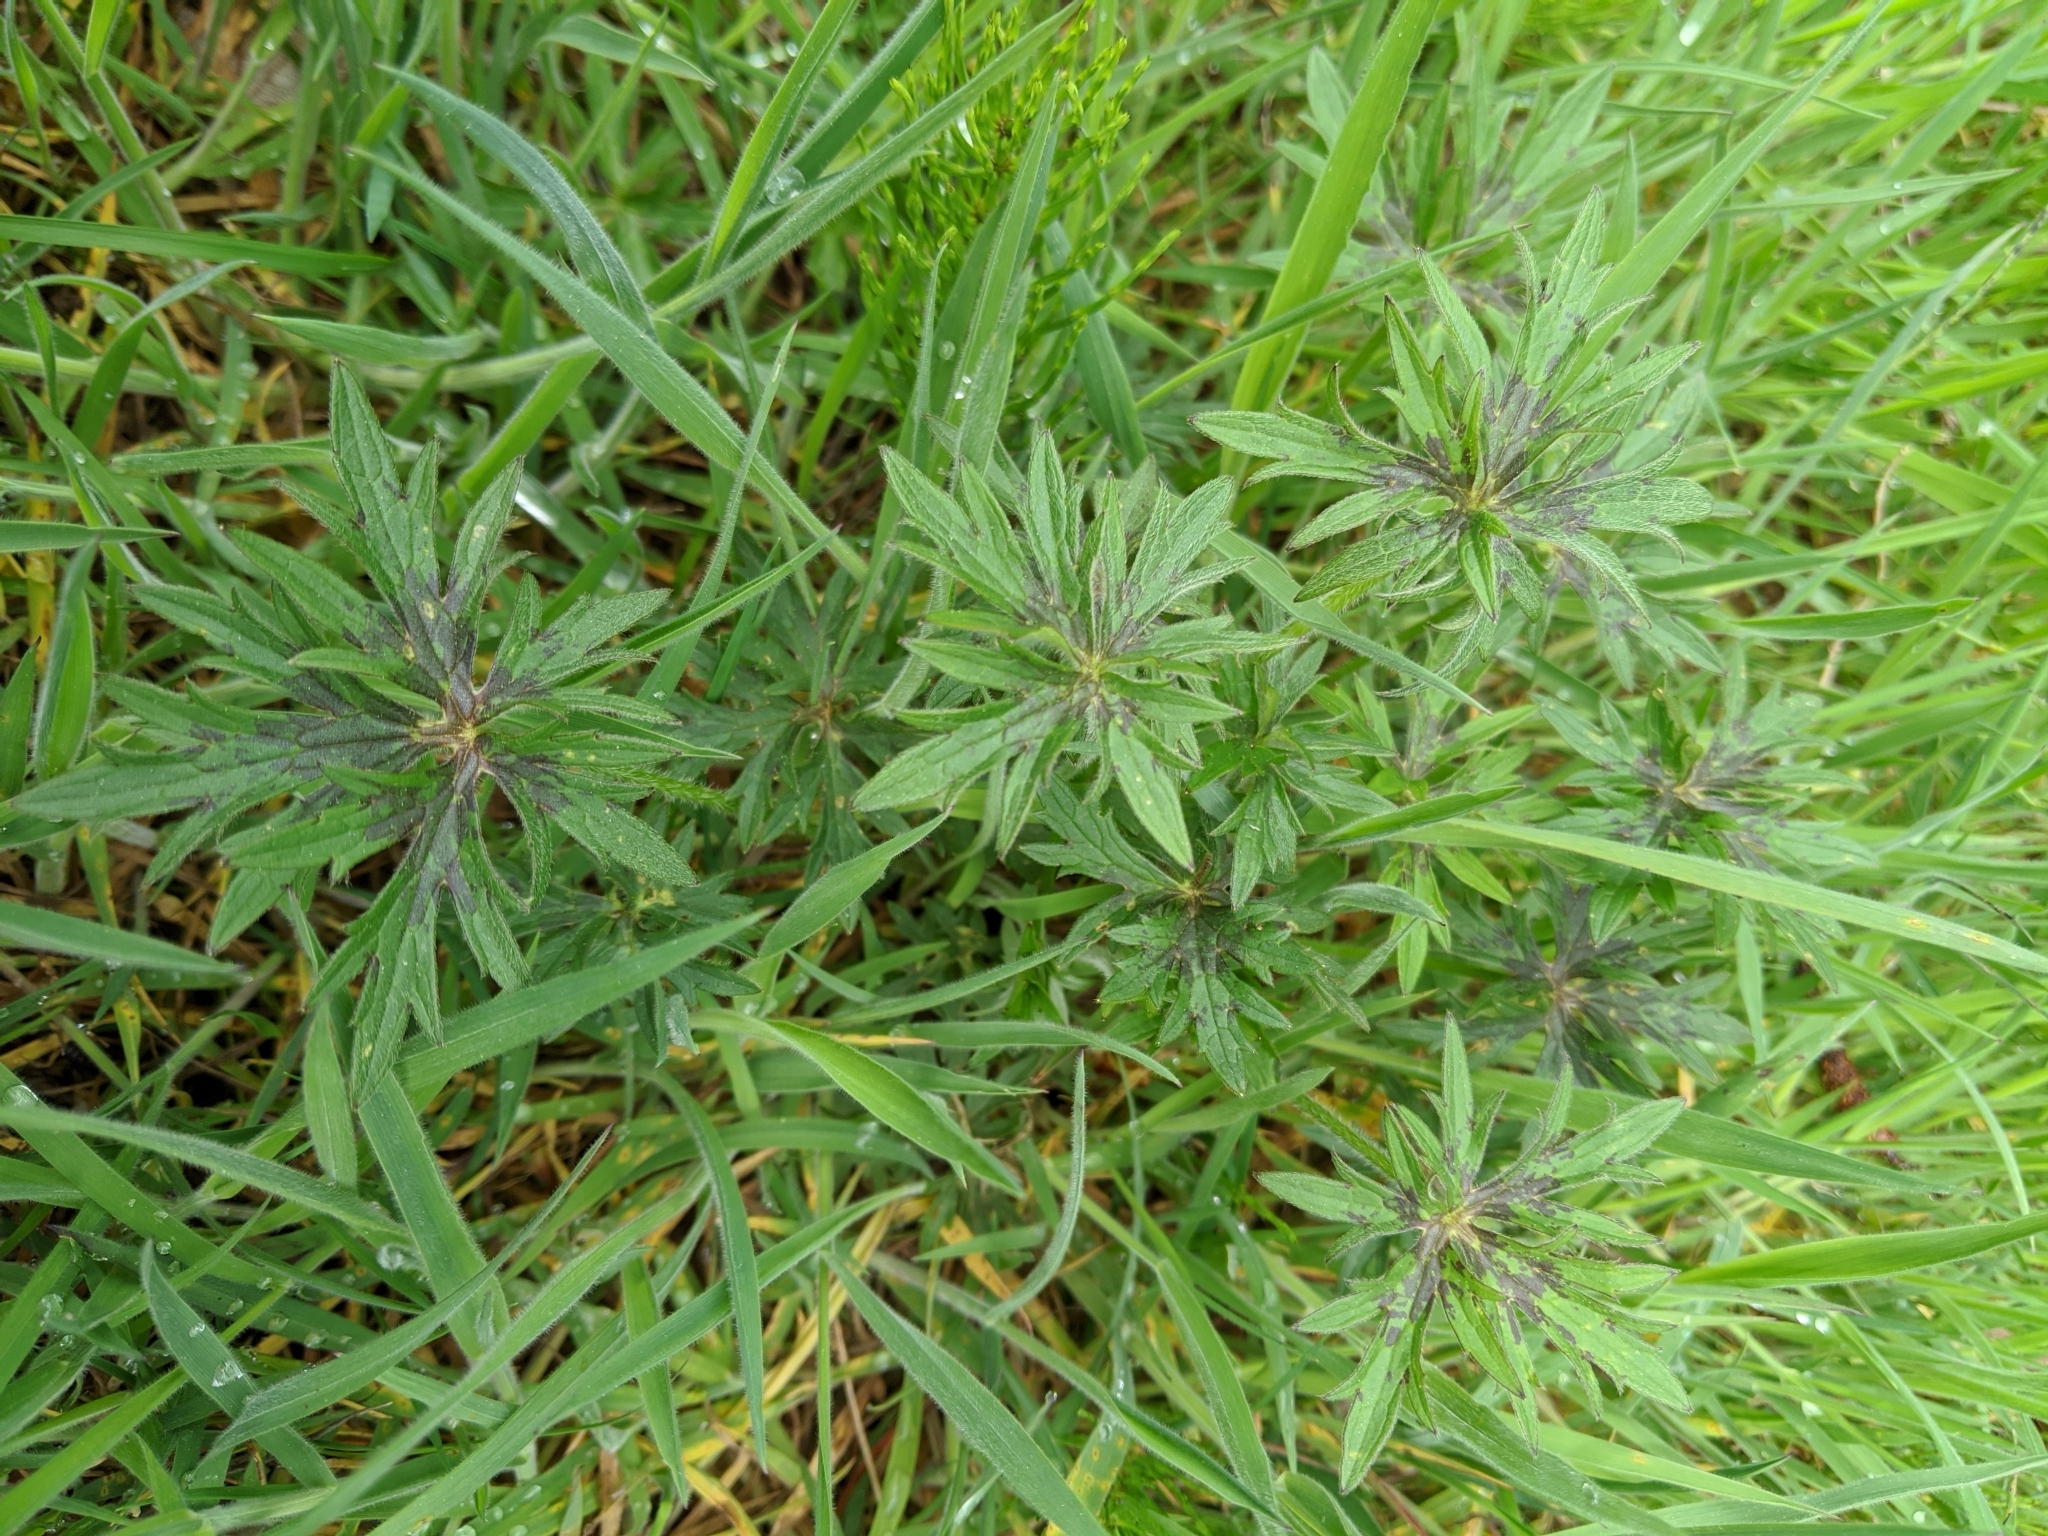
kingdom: Plantae
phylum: Tracheophyta
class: Magnoliopsida
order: Ranunculales
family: Ranunculaceae
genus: Ranunculus
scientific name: Ranunculus acris
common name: Meadow buttercup
